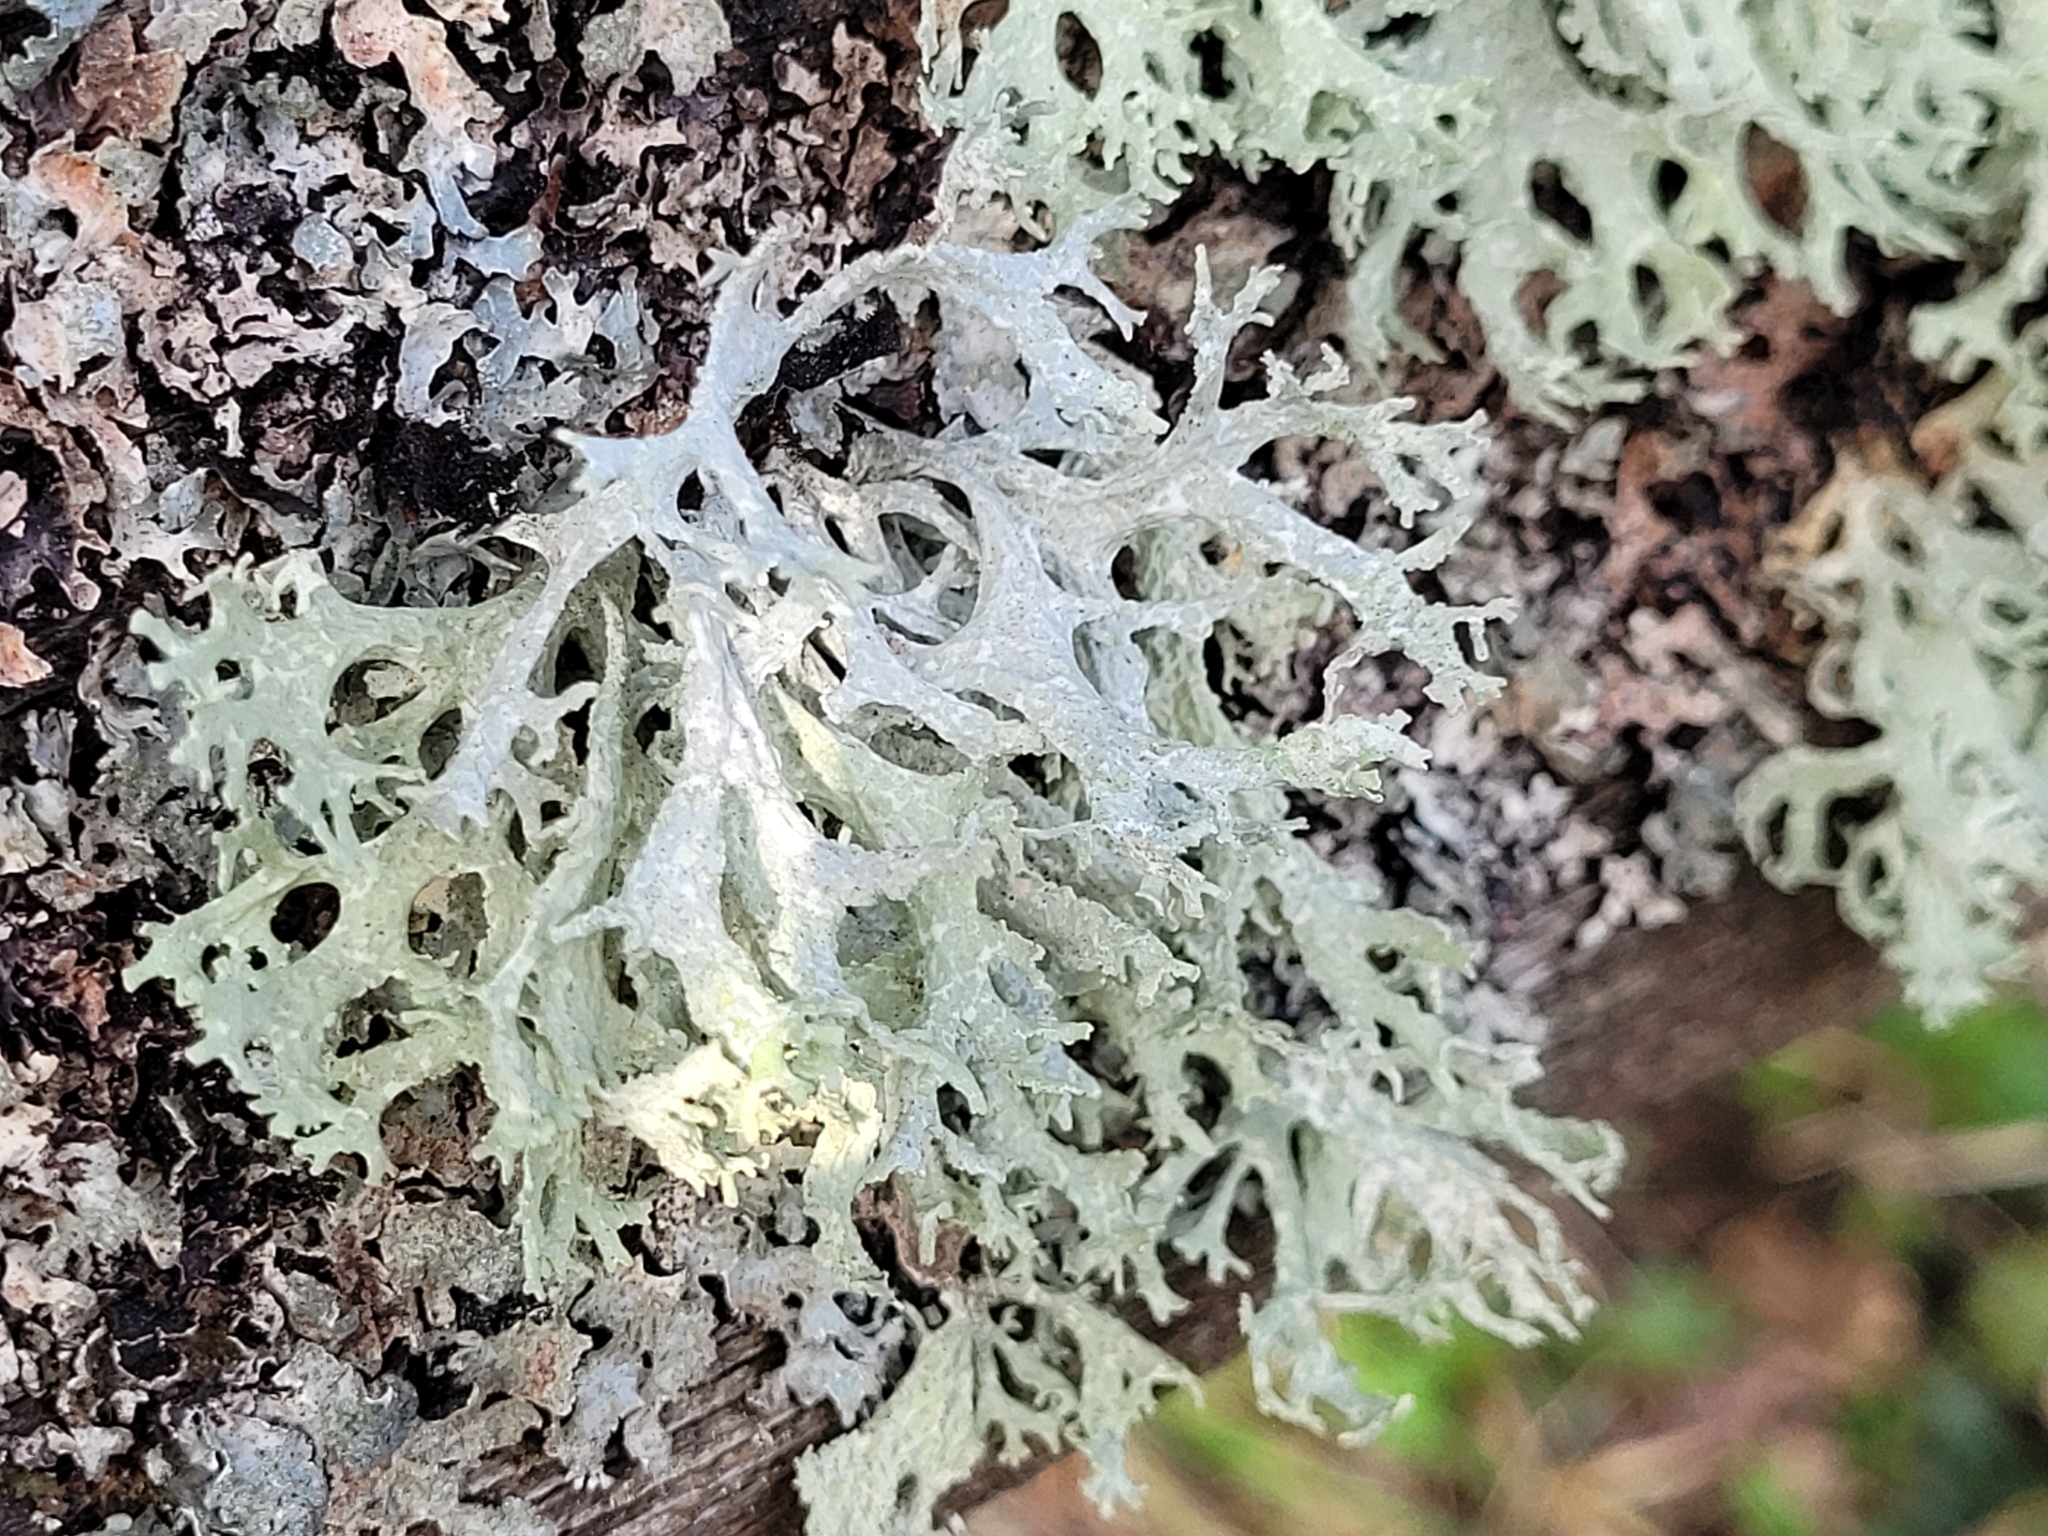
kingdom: Fungi
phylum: Ascomycota
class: Lecanoromycetes
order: Lecanorales
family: Parmeliaceae
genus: Evernia
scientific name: Evernia prunastri
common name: Oak moss
